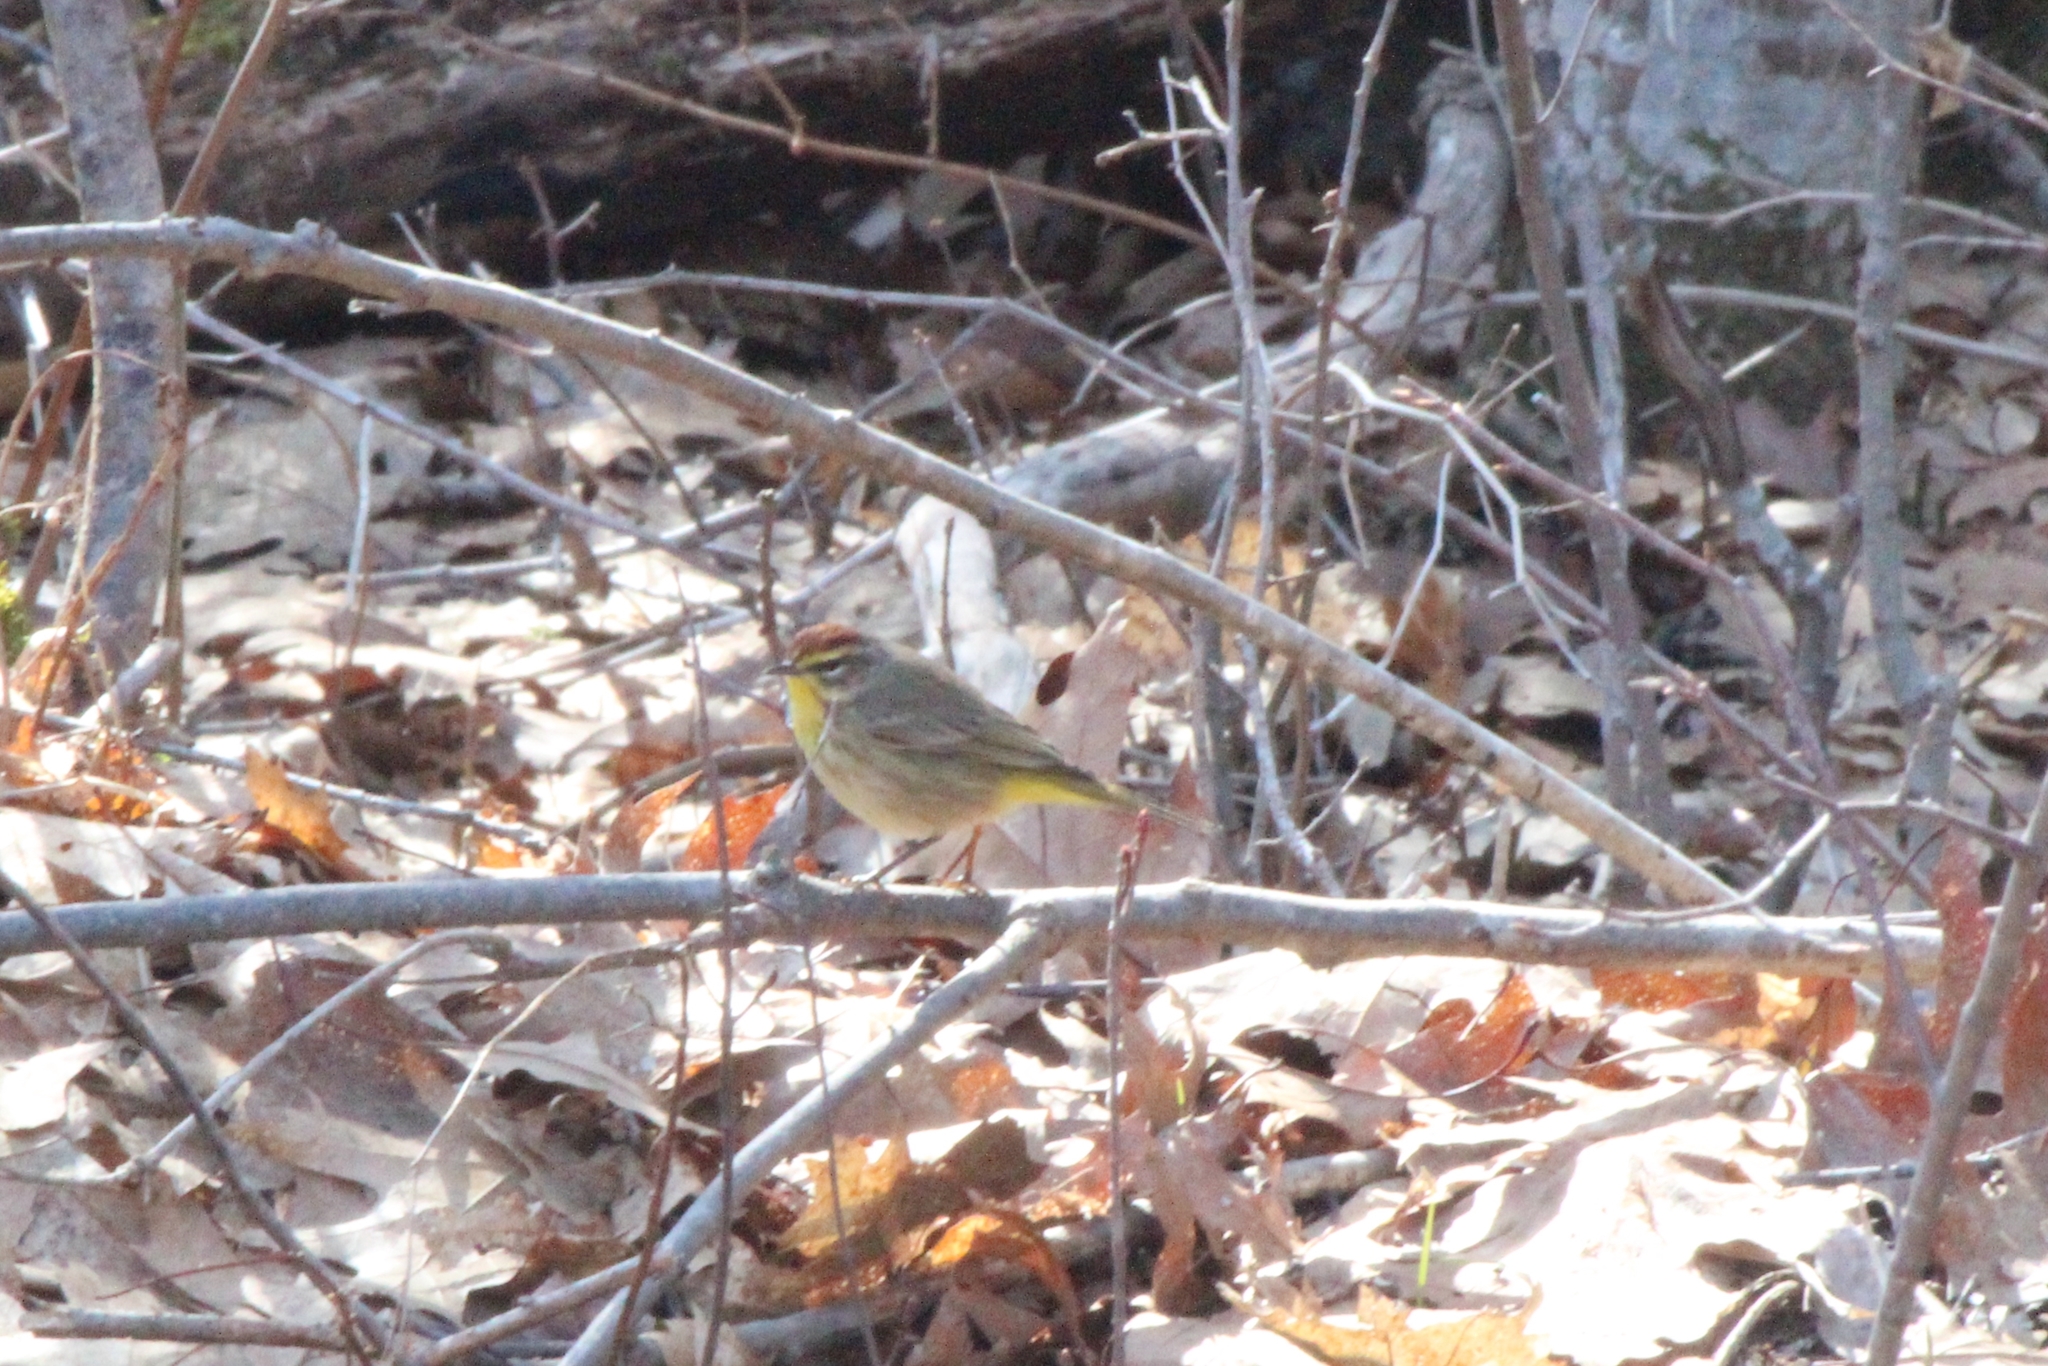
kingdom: Animalia
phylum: Chordata
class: Aves
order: Passeriformes
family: Parulidae
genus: Setophaga
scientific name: Setophaga palmarum
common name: Palm warbler
